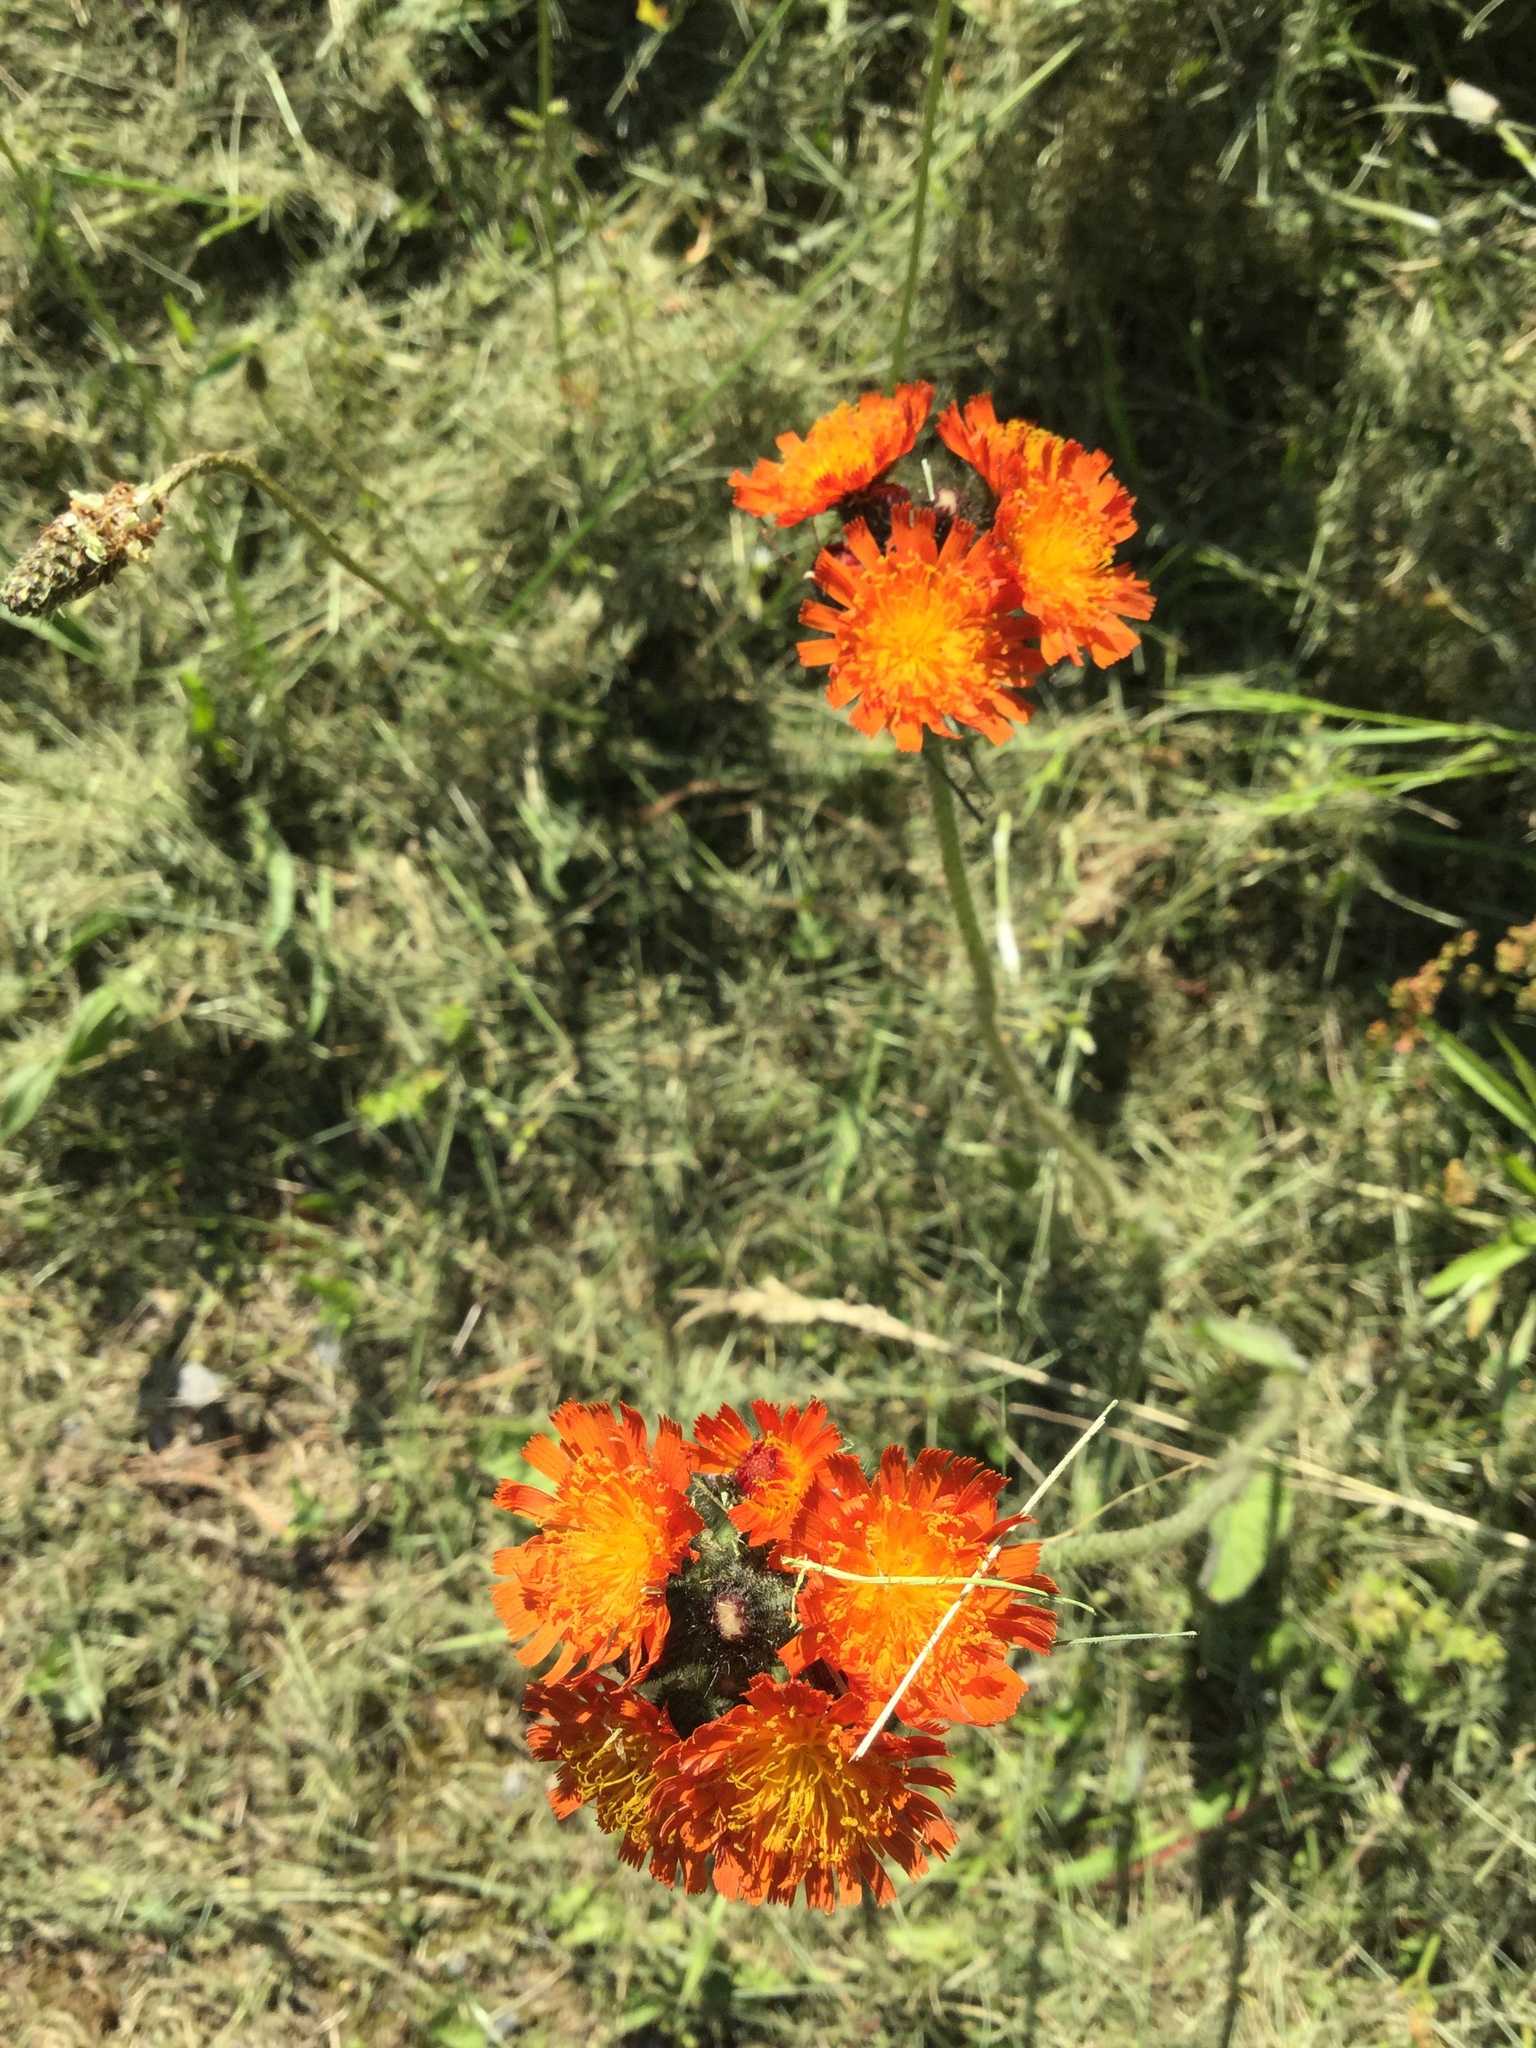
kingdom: Plantae
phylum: Tracheophyta
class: Magnoliopsida
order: Asterales
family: Asteraceae
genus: Pilosella
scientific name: Pilosella aurantiaca
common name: Fox-and-cubs
